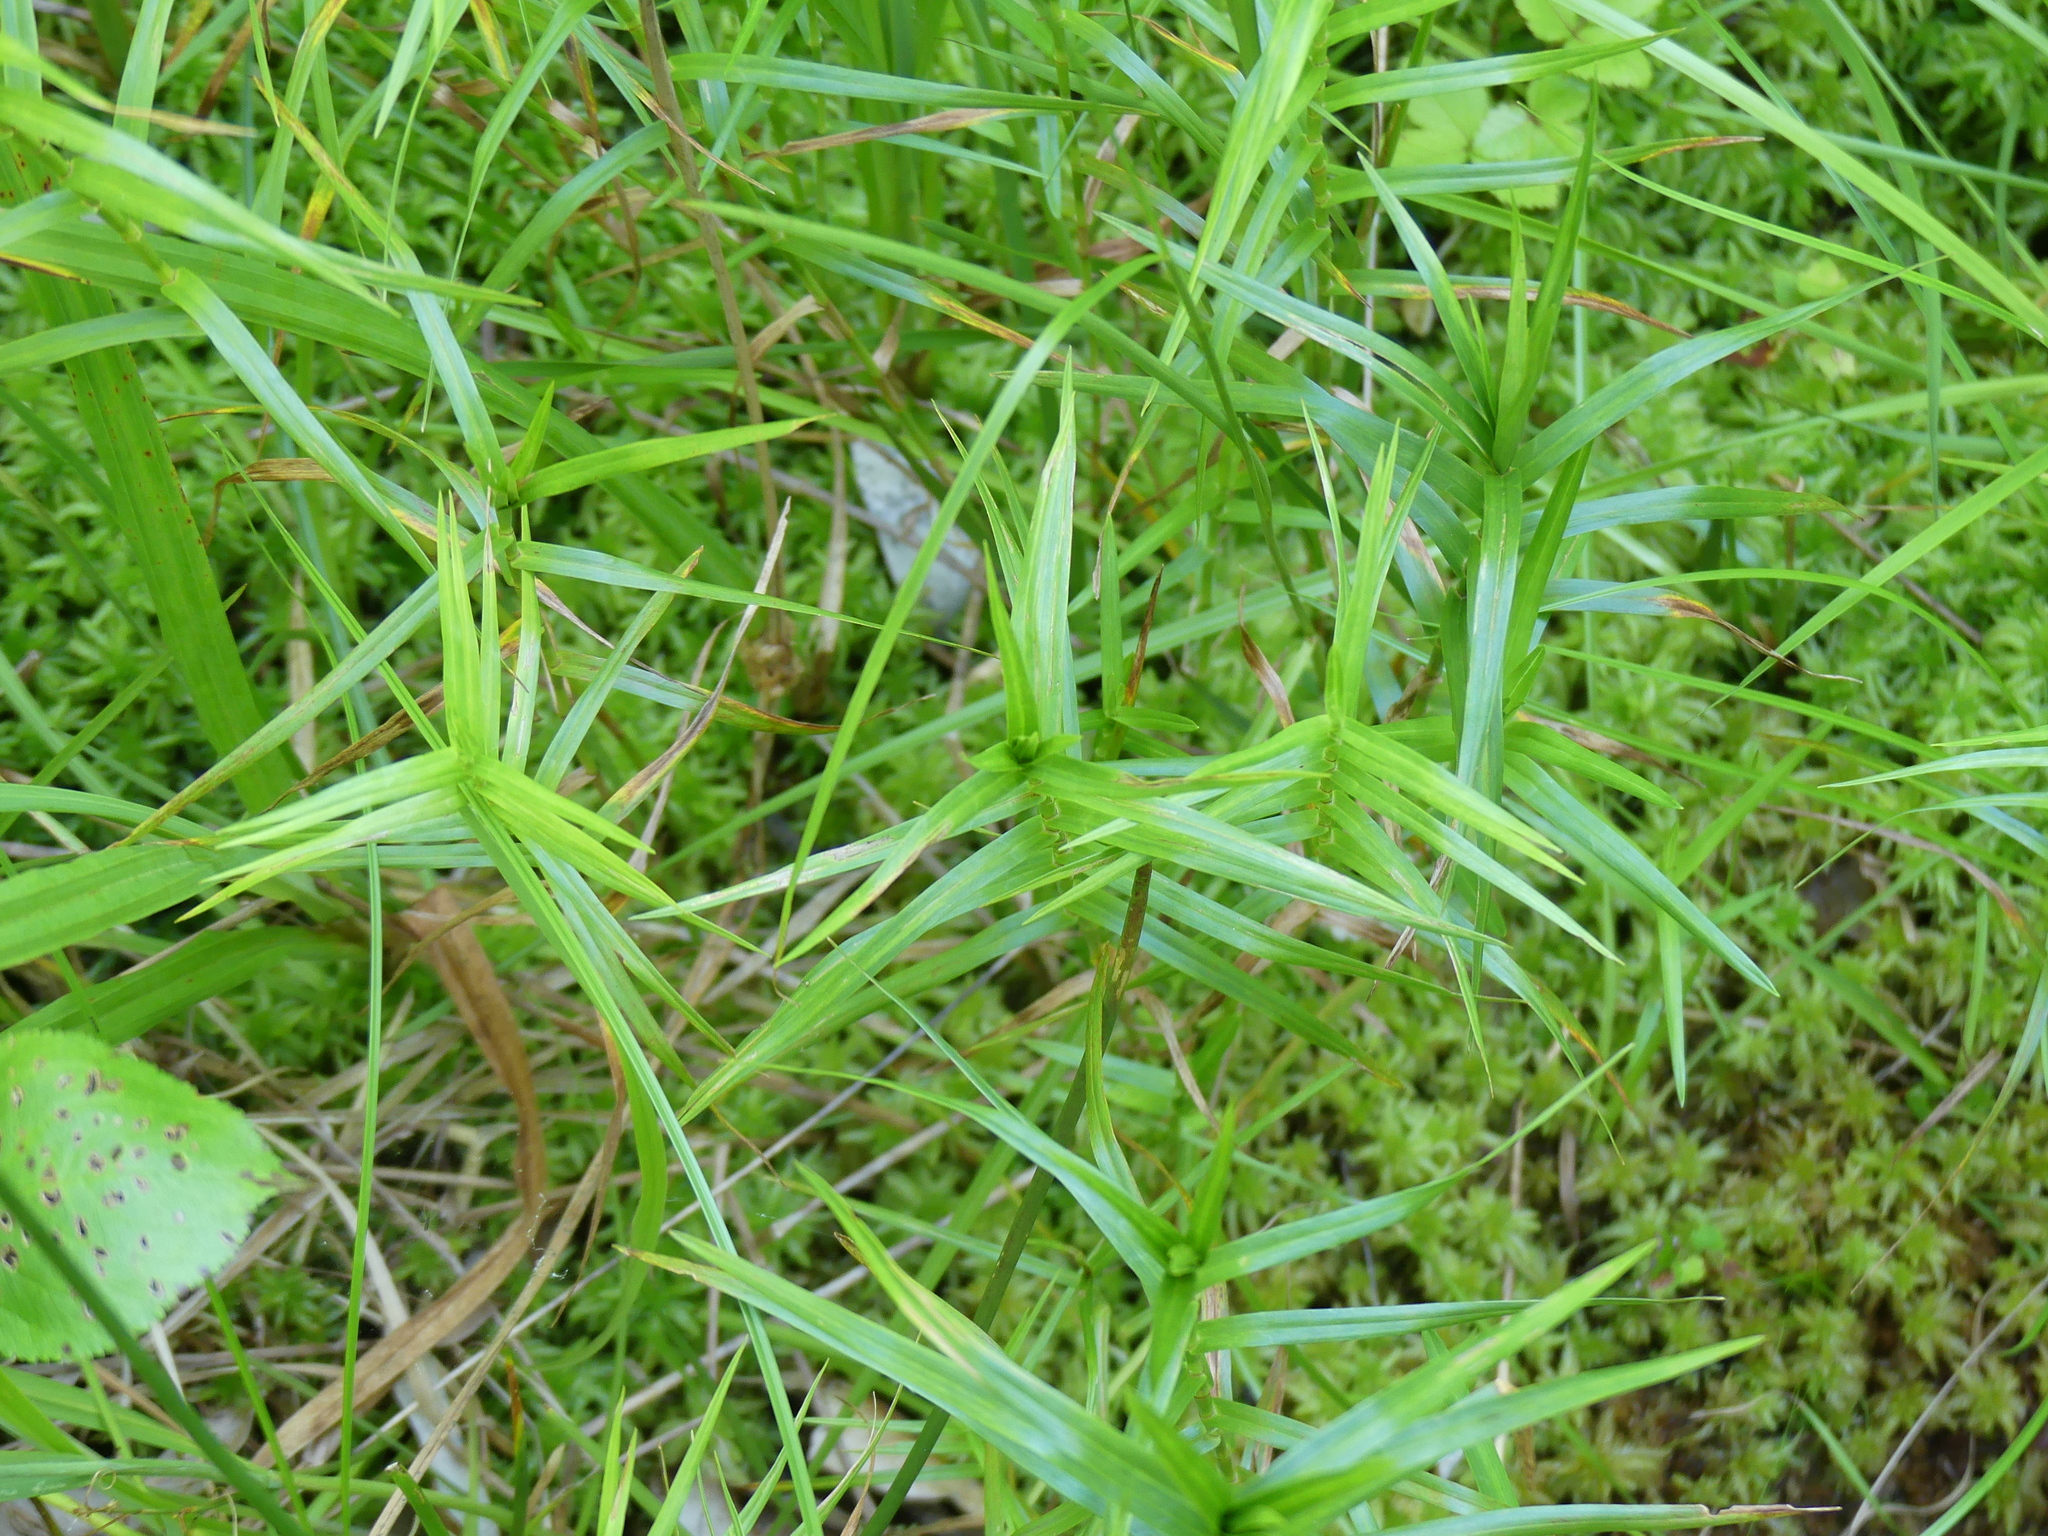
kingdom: Plantae
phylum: Tracheophyta
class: Liliopsida
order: Poales
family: Cyperaceae
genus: Dulichium
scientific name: Dulichium arundinaceum
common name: Three-way sedge
